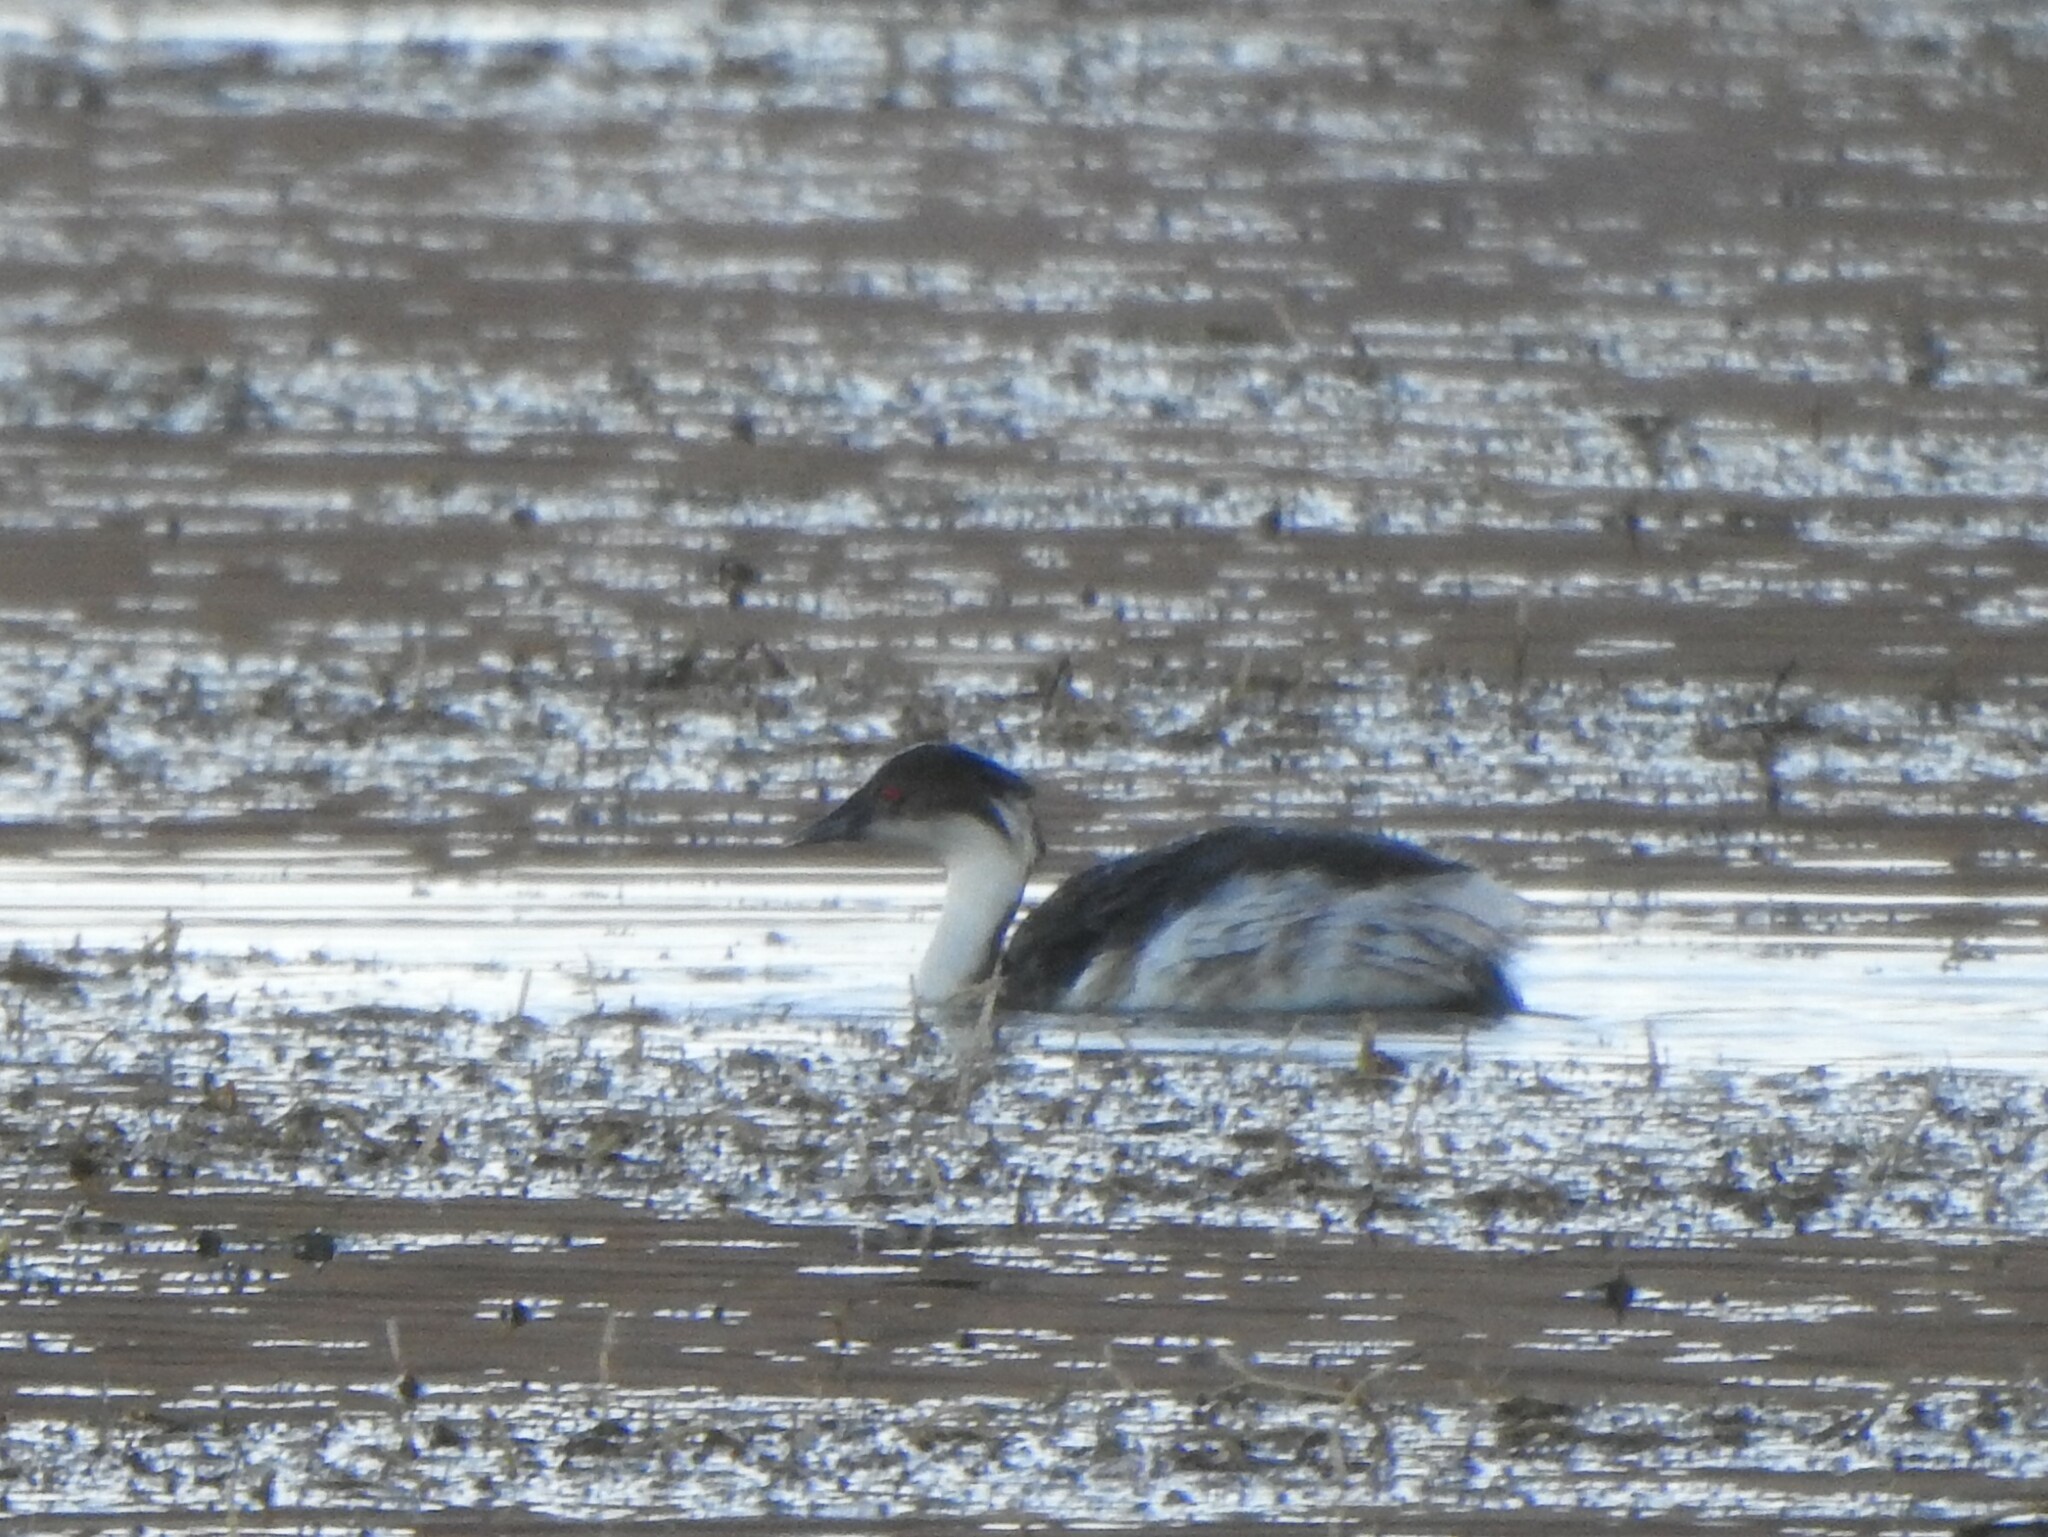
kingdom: Animalia
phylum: Chordata
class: Aves
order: Podicipediformes
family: Podicipedidae
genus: Podiceps
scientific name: Podiceps occipitalis
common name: Silvery grebe
